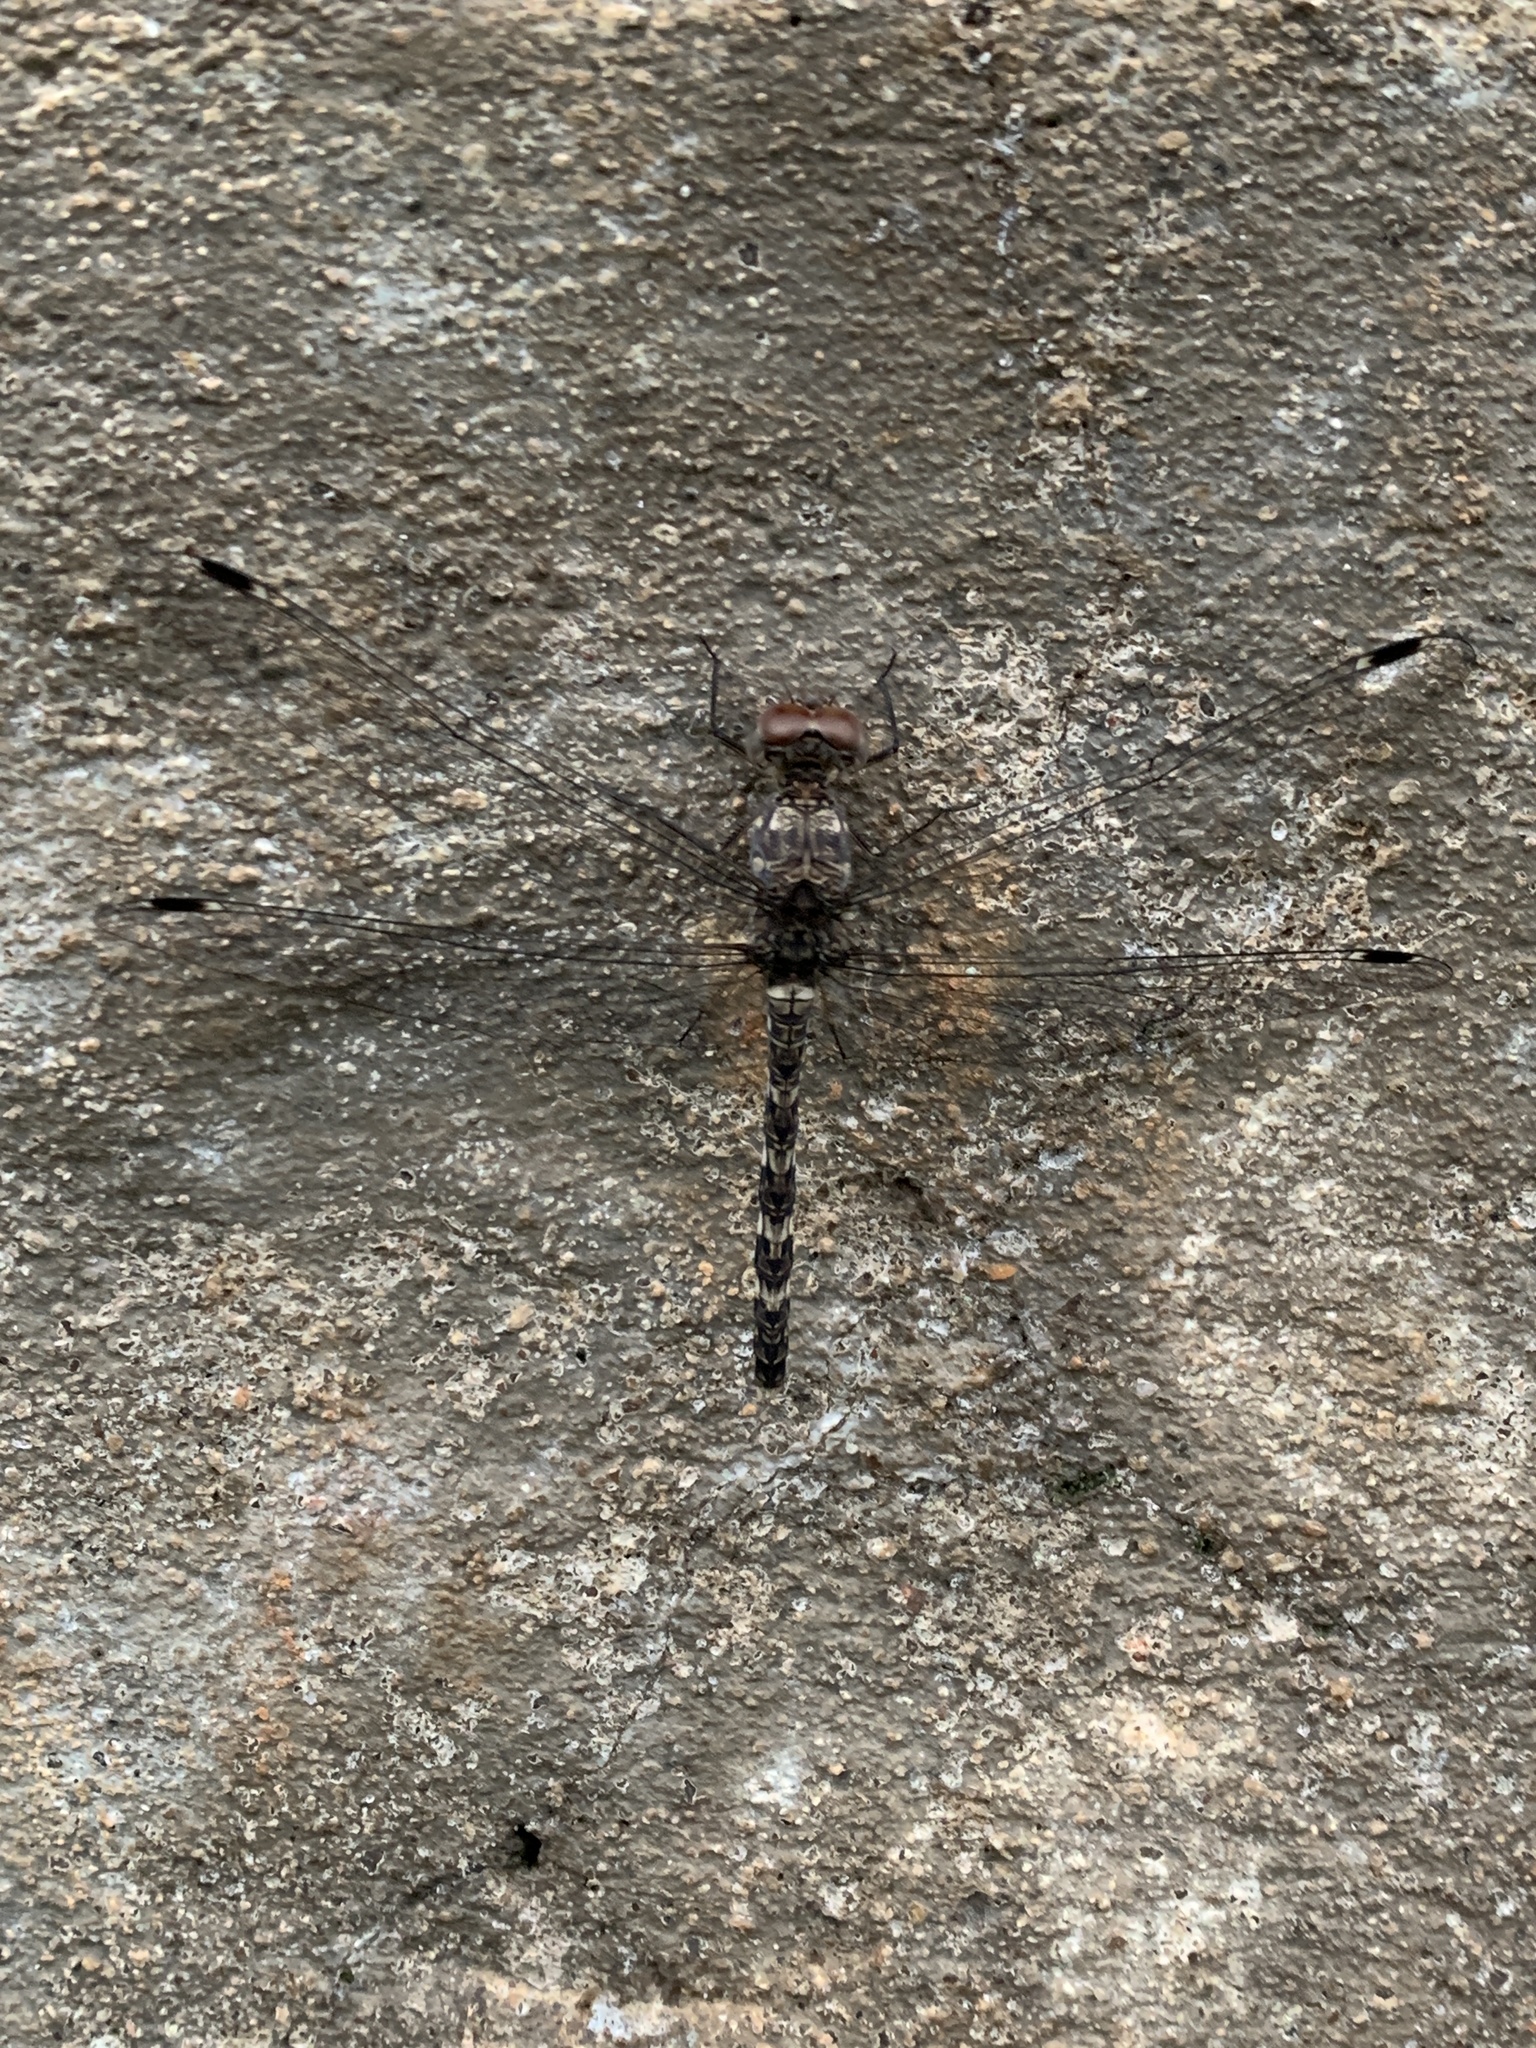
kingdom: Animalia
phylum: Arthropoda
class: Insecta
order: Odonata
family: Libellulidae
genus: Bradinopyga
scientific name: Bradinopyga geminata
